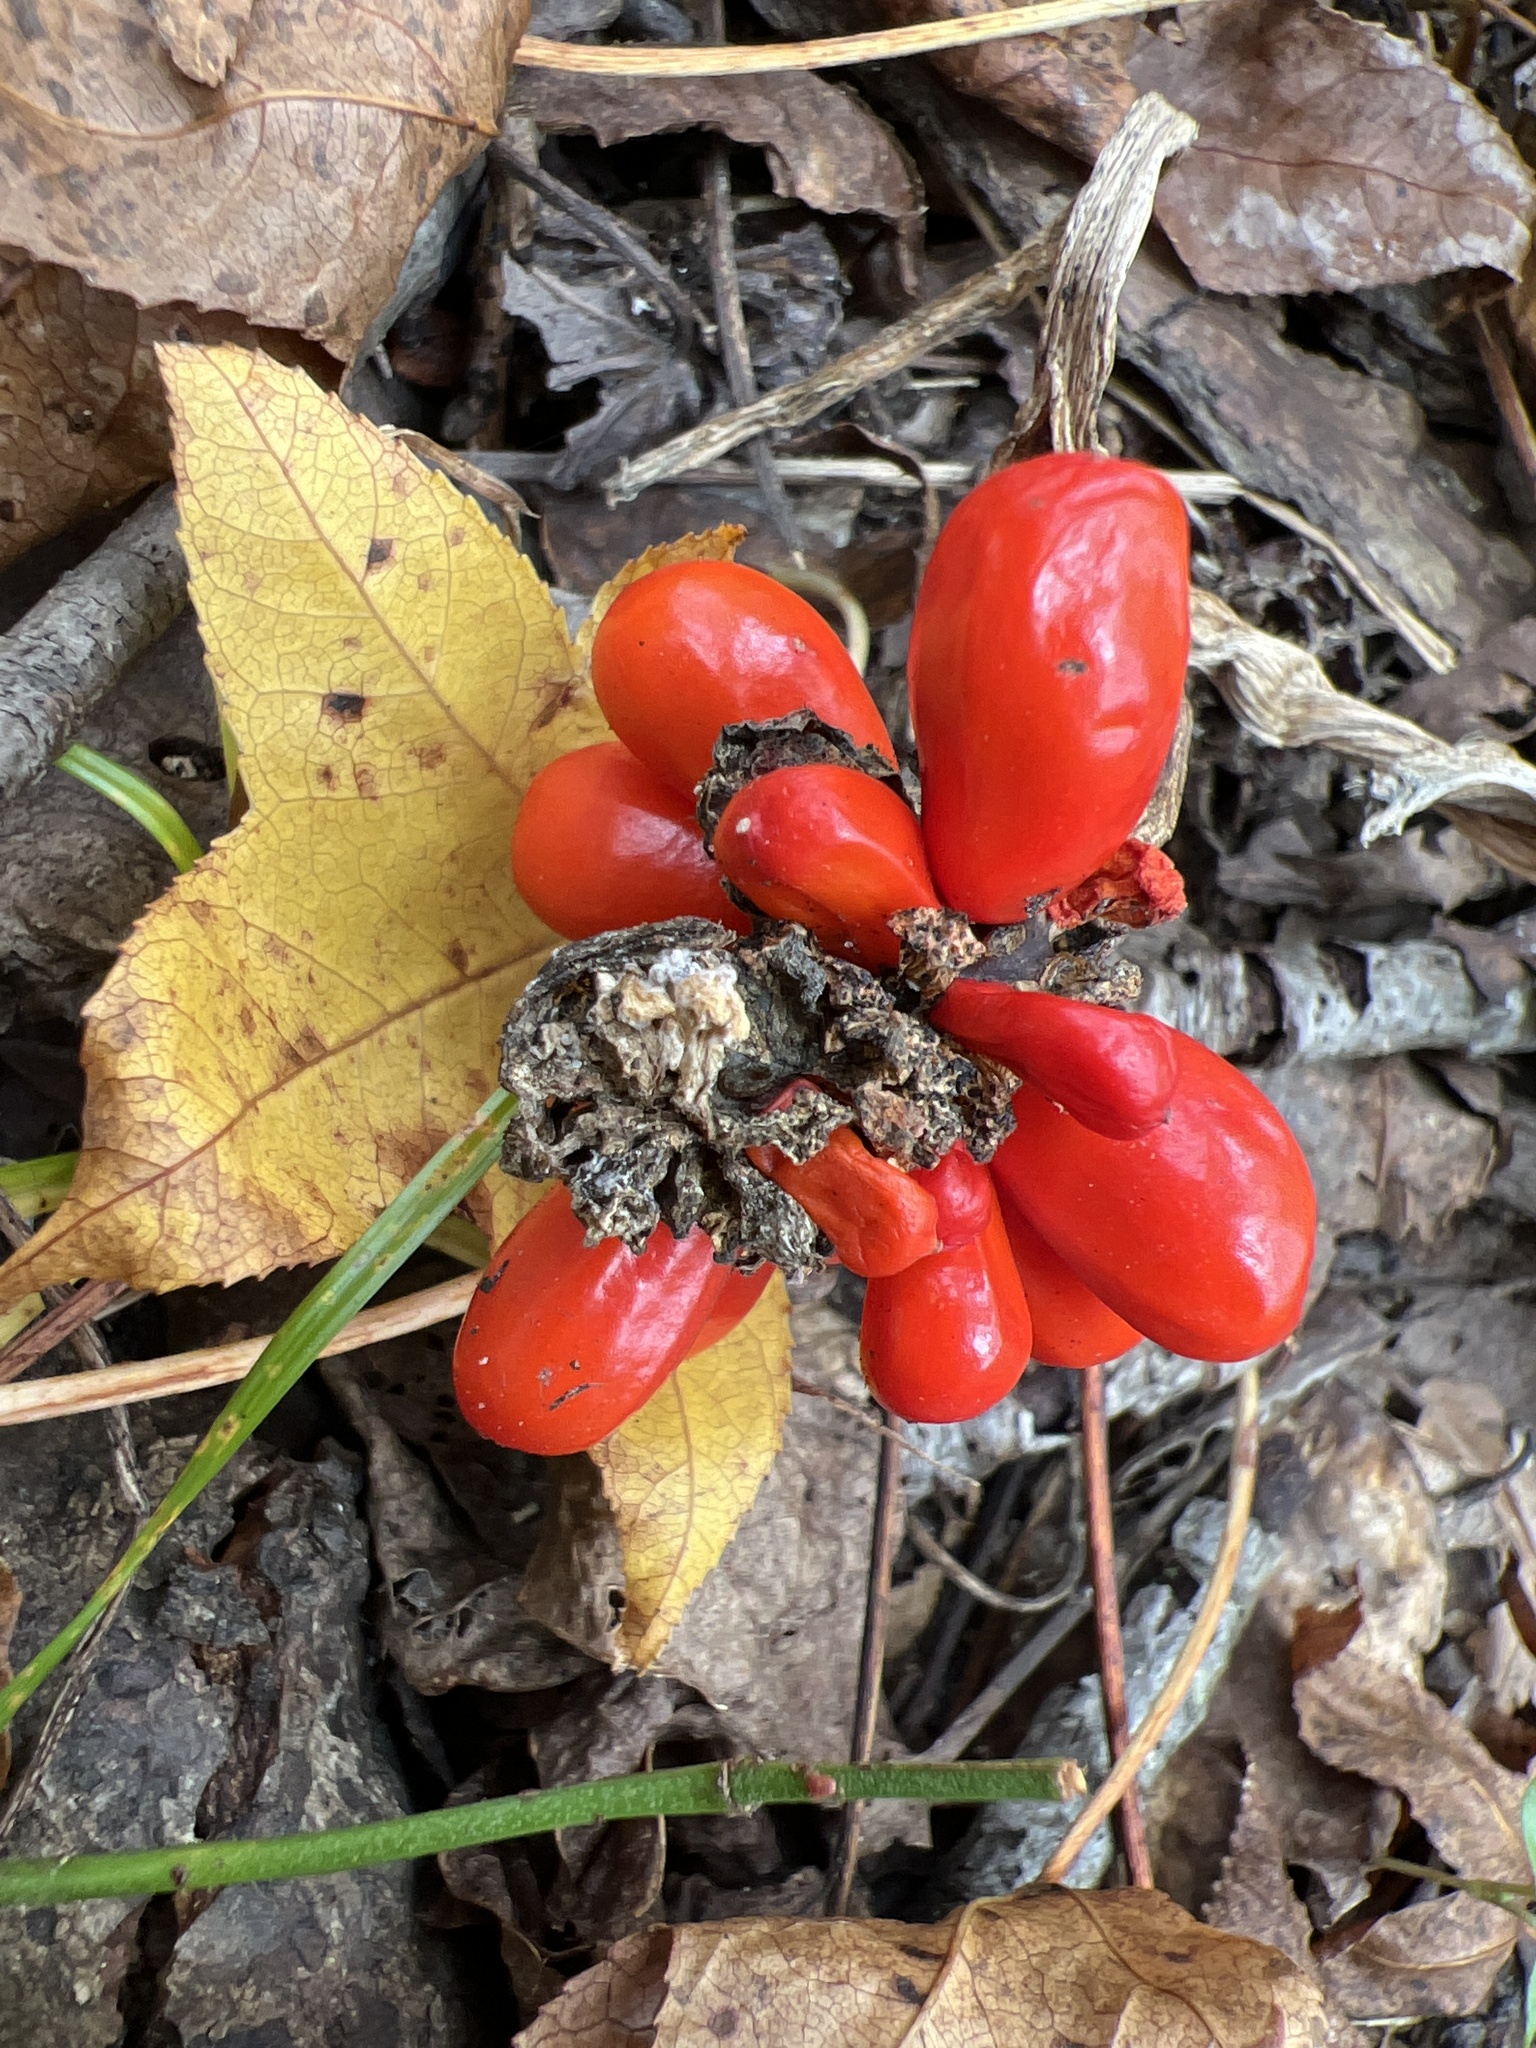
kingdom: Plantae
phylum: Tracheophyta
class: Liliopsida
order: Alismatales
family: Araceae
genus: Arisaema
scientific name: Arisaema triphyllum
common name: Jack-in-the-pulpit
